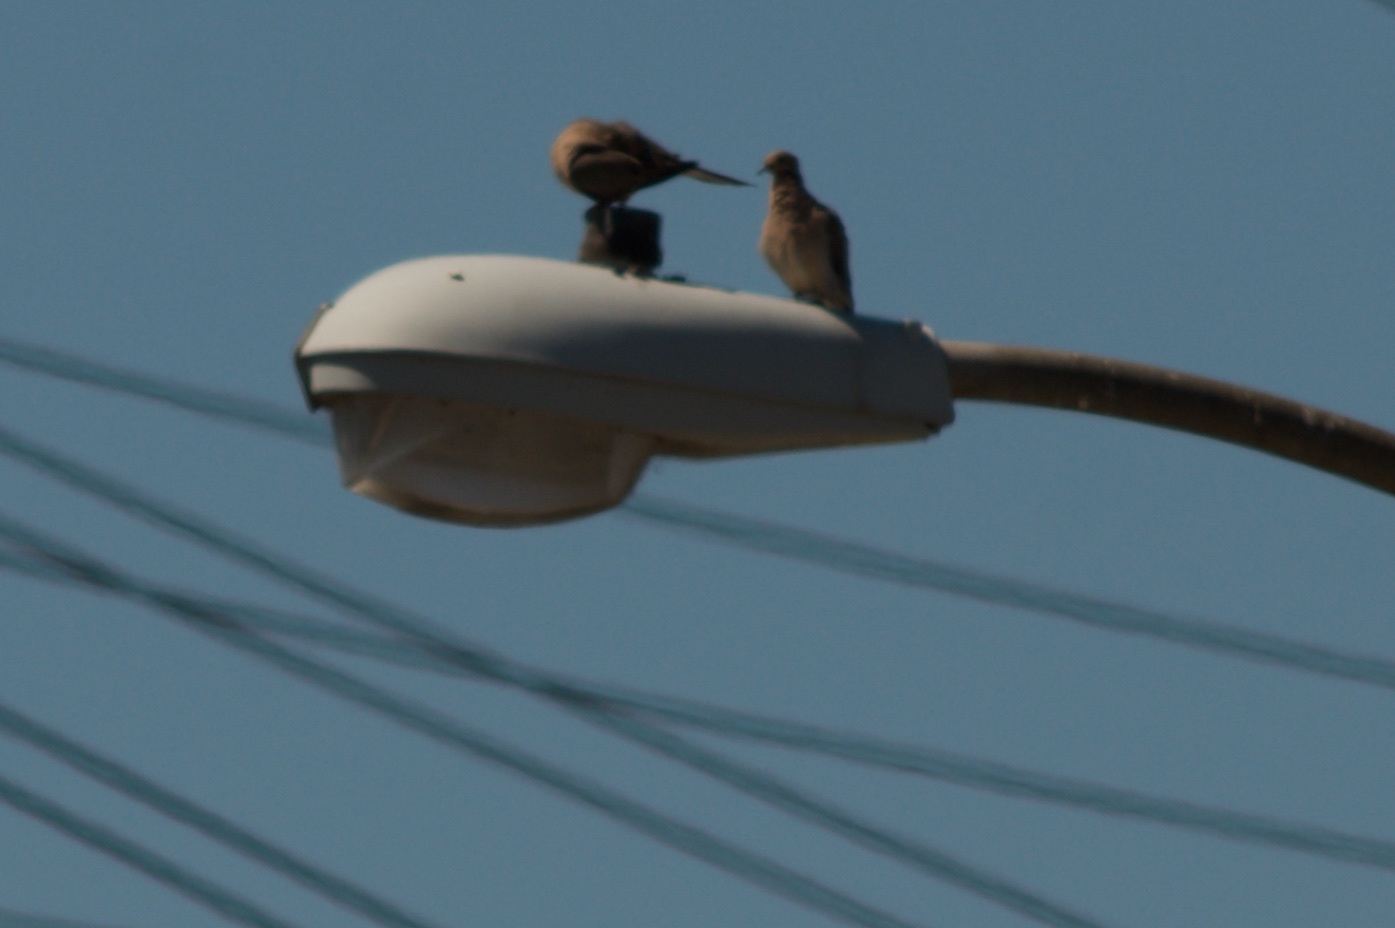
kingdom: Animalia
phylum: Chordata
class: Aves
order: Columbiformes
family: Columbidae
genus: Zenaida
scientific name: Zenaida macroura
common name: Mourning dove
